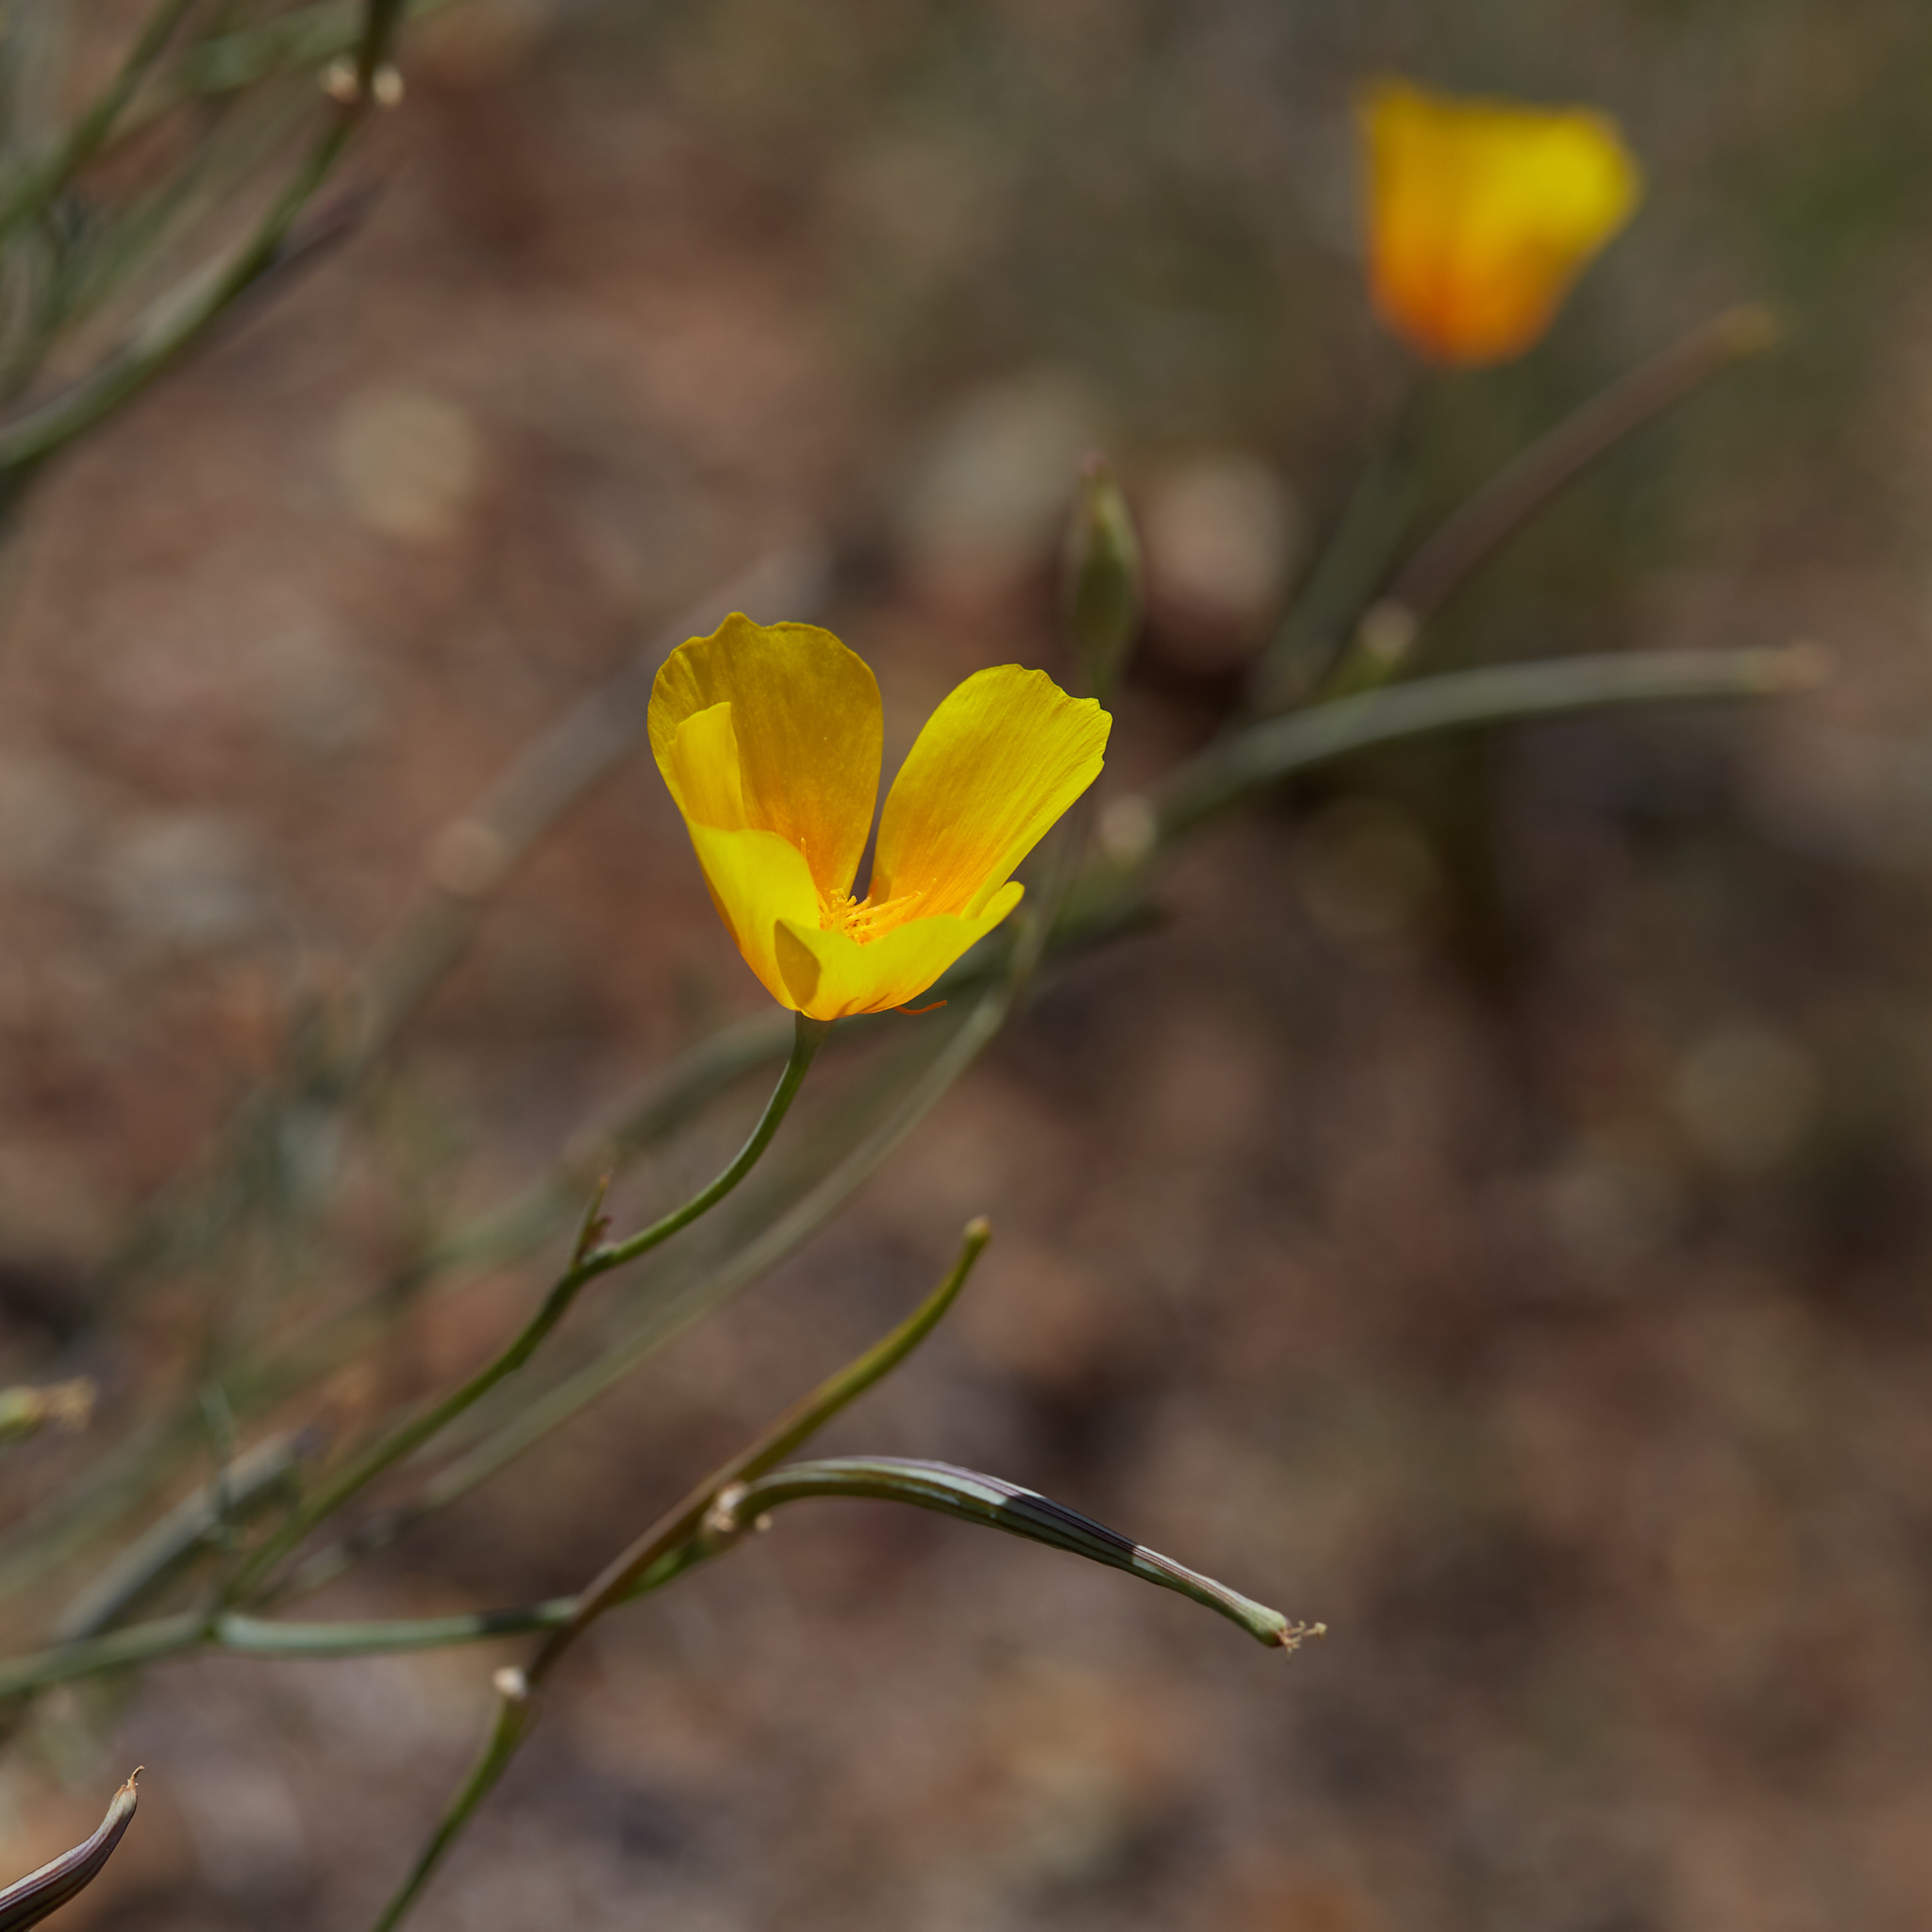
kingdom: Plantae
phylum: Tracheophyta
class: Magnoliopsida
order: Ranunculales
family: Papaveraceae
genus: Eschscholzia
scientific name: Eschscholzia californica
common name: California poppy
